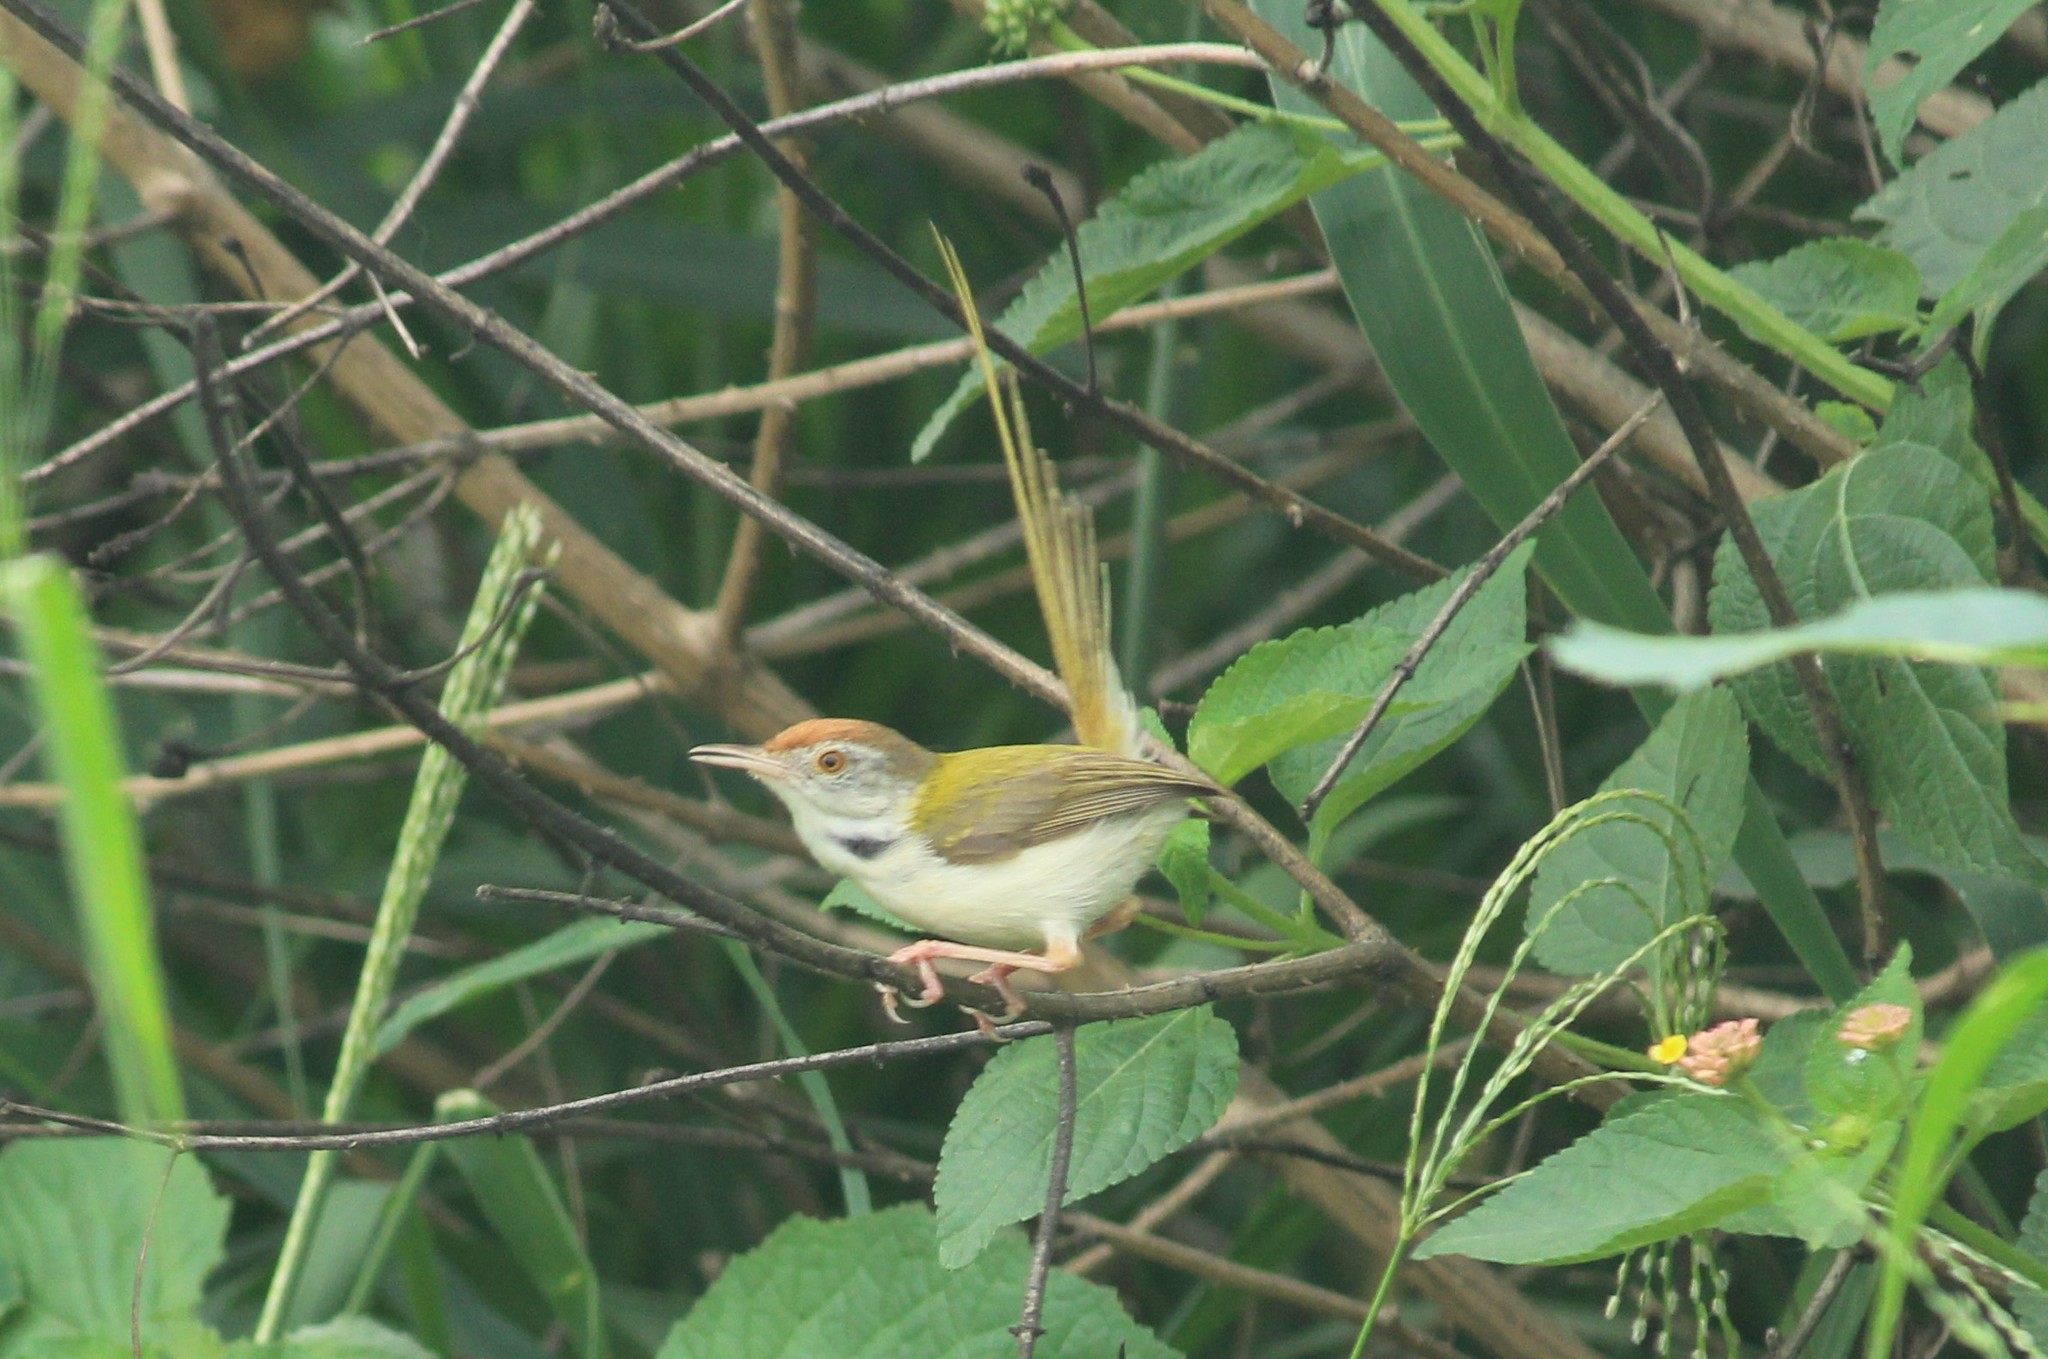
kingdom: Animalia
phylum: Chordata
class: Aves
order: Passeriformes
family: Cisticolidae
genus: Orthotomus
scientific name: Orthotomus sutorius
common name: Common tailorbird
